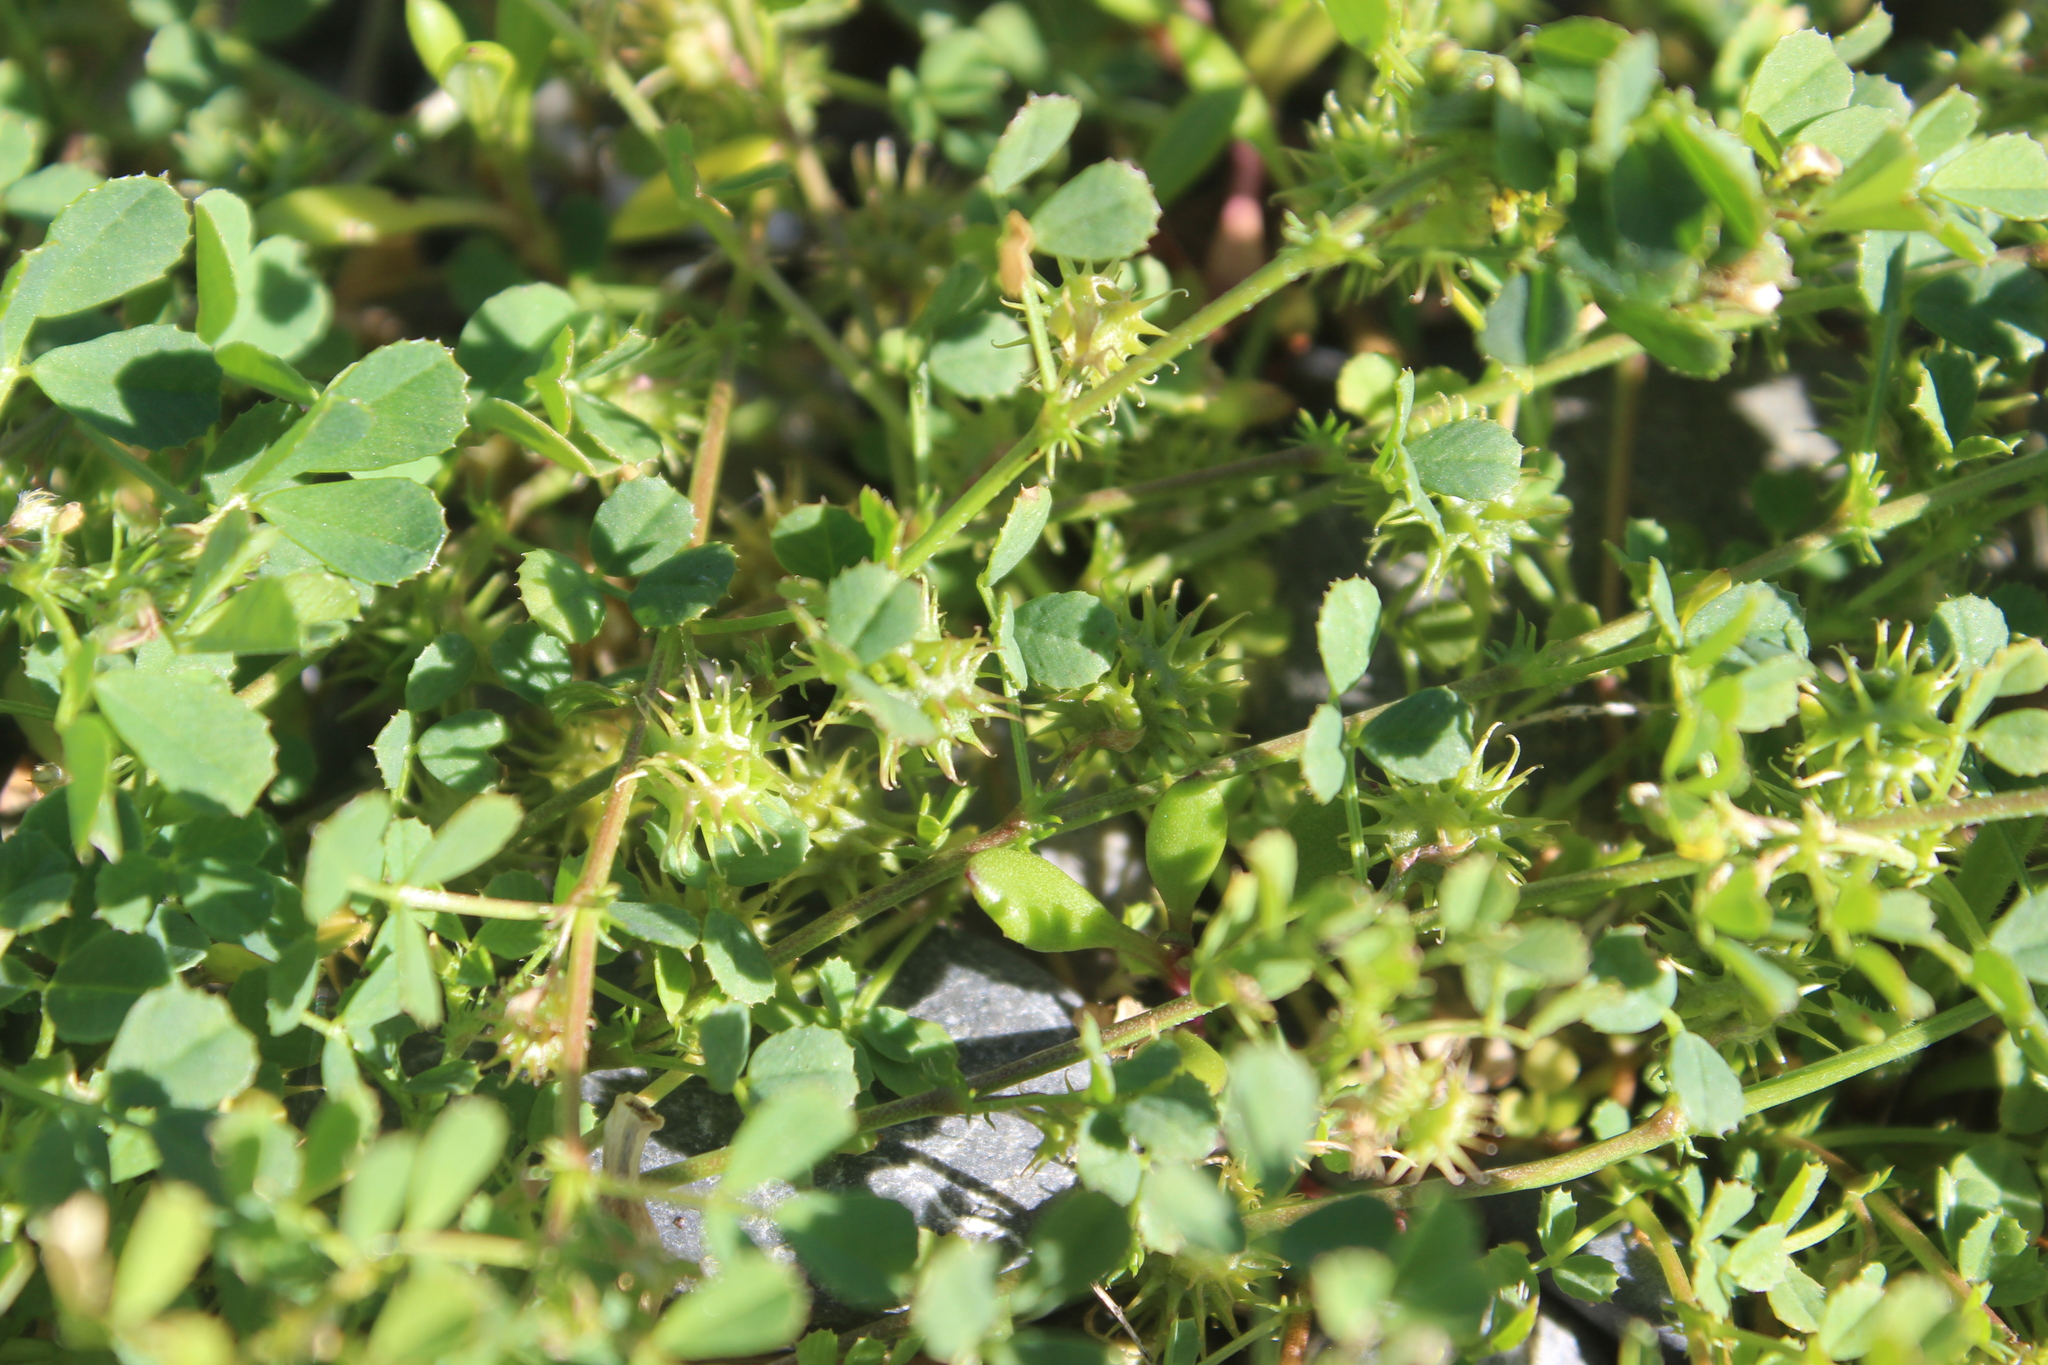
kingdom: Plantae
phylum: Tracheophyta
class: Magnoliopsida
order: Fabales
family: Fabaceae
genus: Medicago
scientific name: Medicago polymorpha
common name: Burclover
